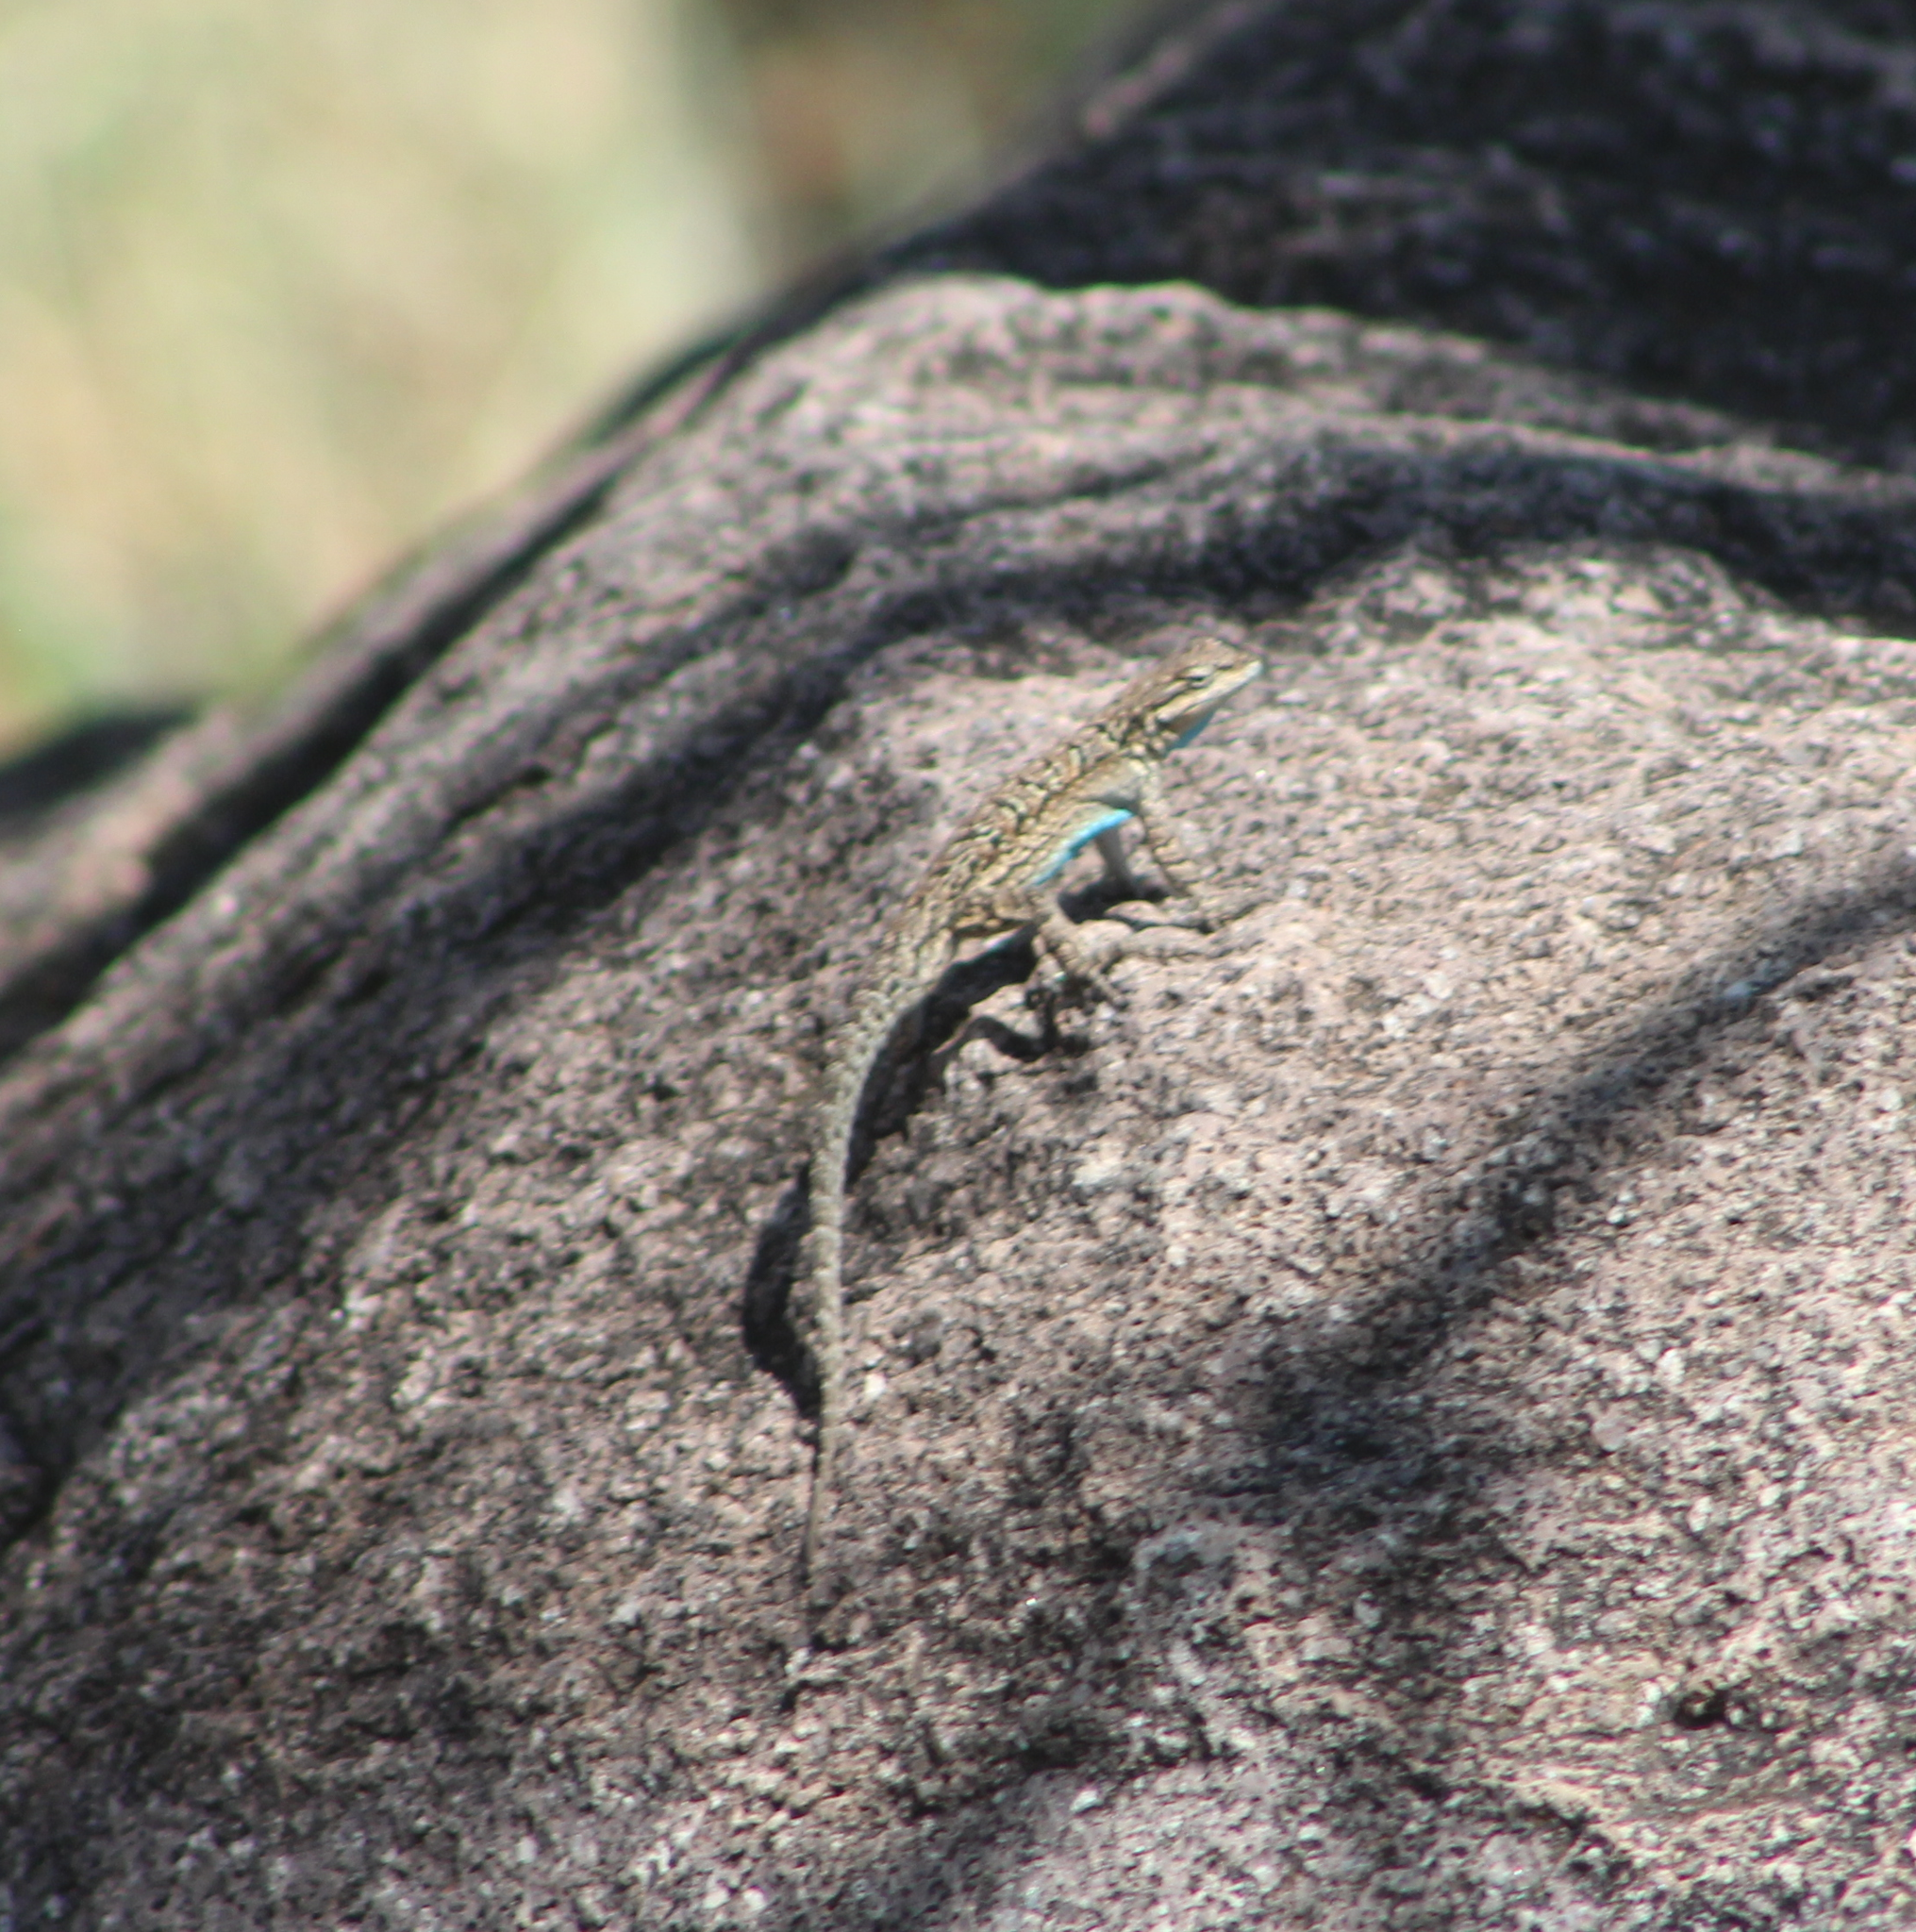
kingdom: Animalia
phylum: Chordata
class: Squamata
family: Phrynosomatidae
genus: Urosaurus
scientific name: Urosaurus ornatus
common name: Ornate tree lizard
